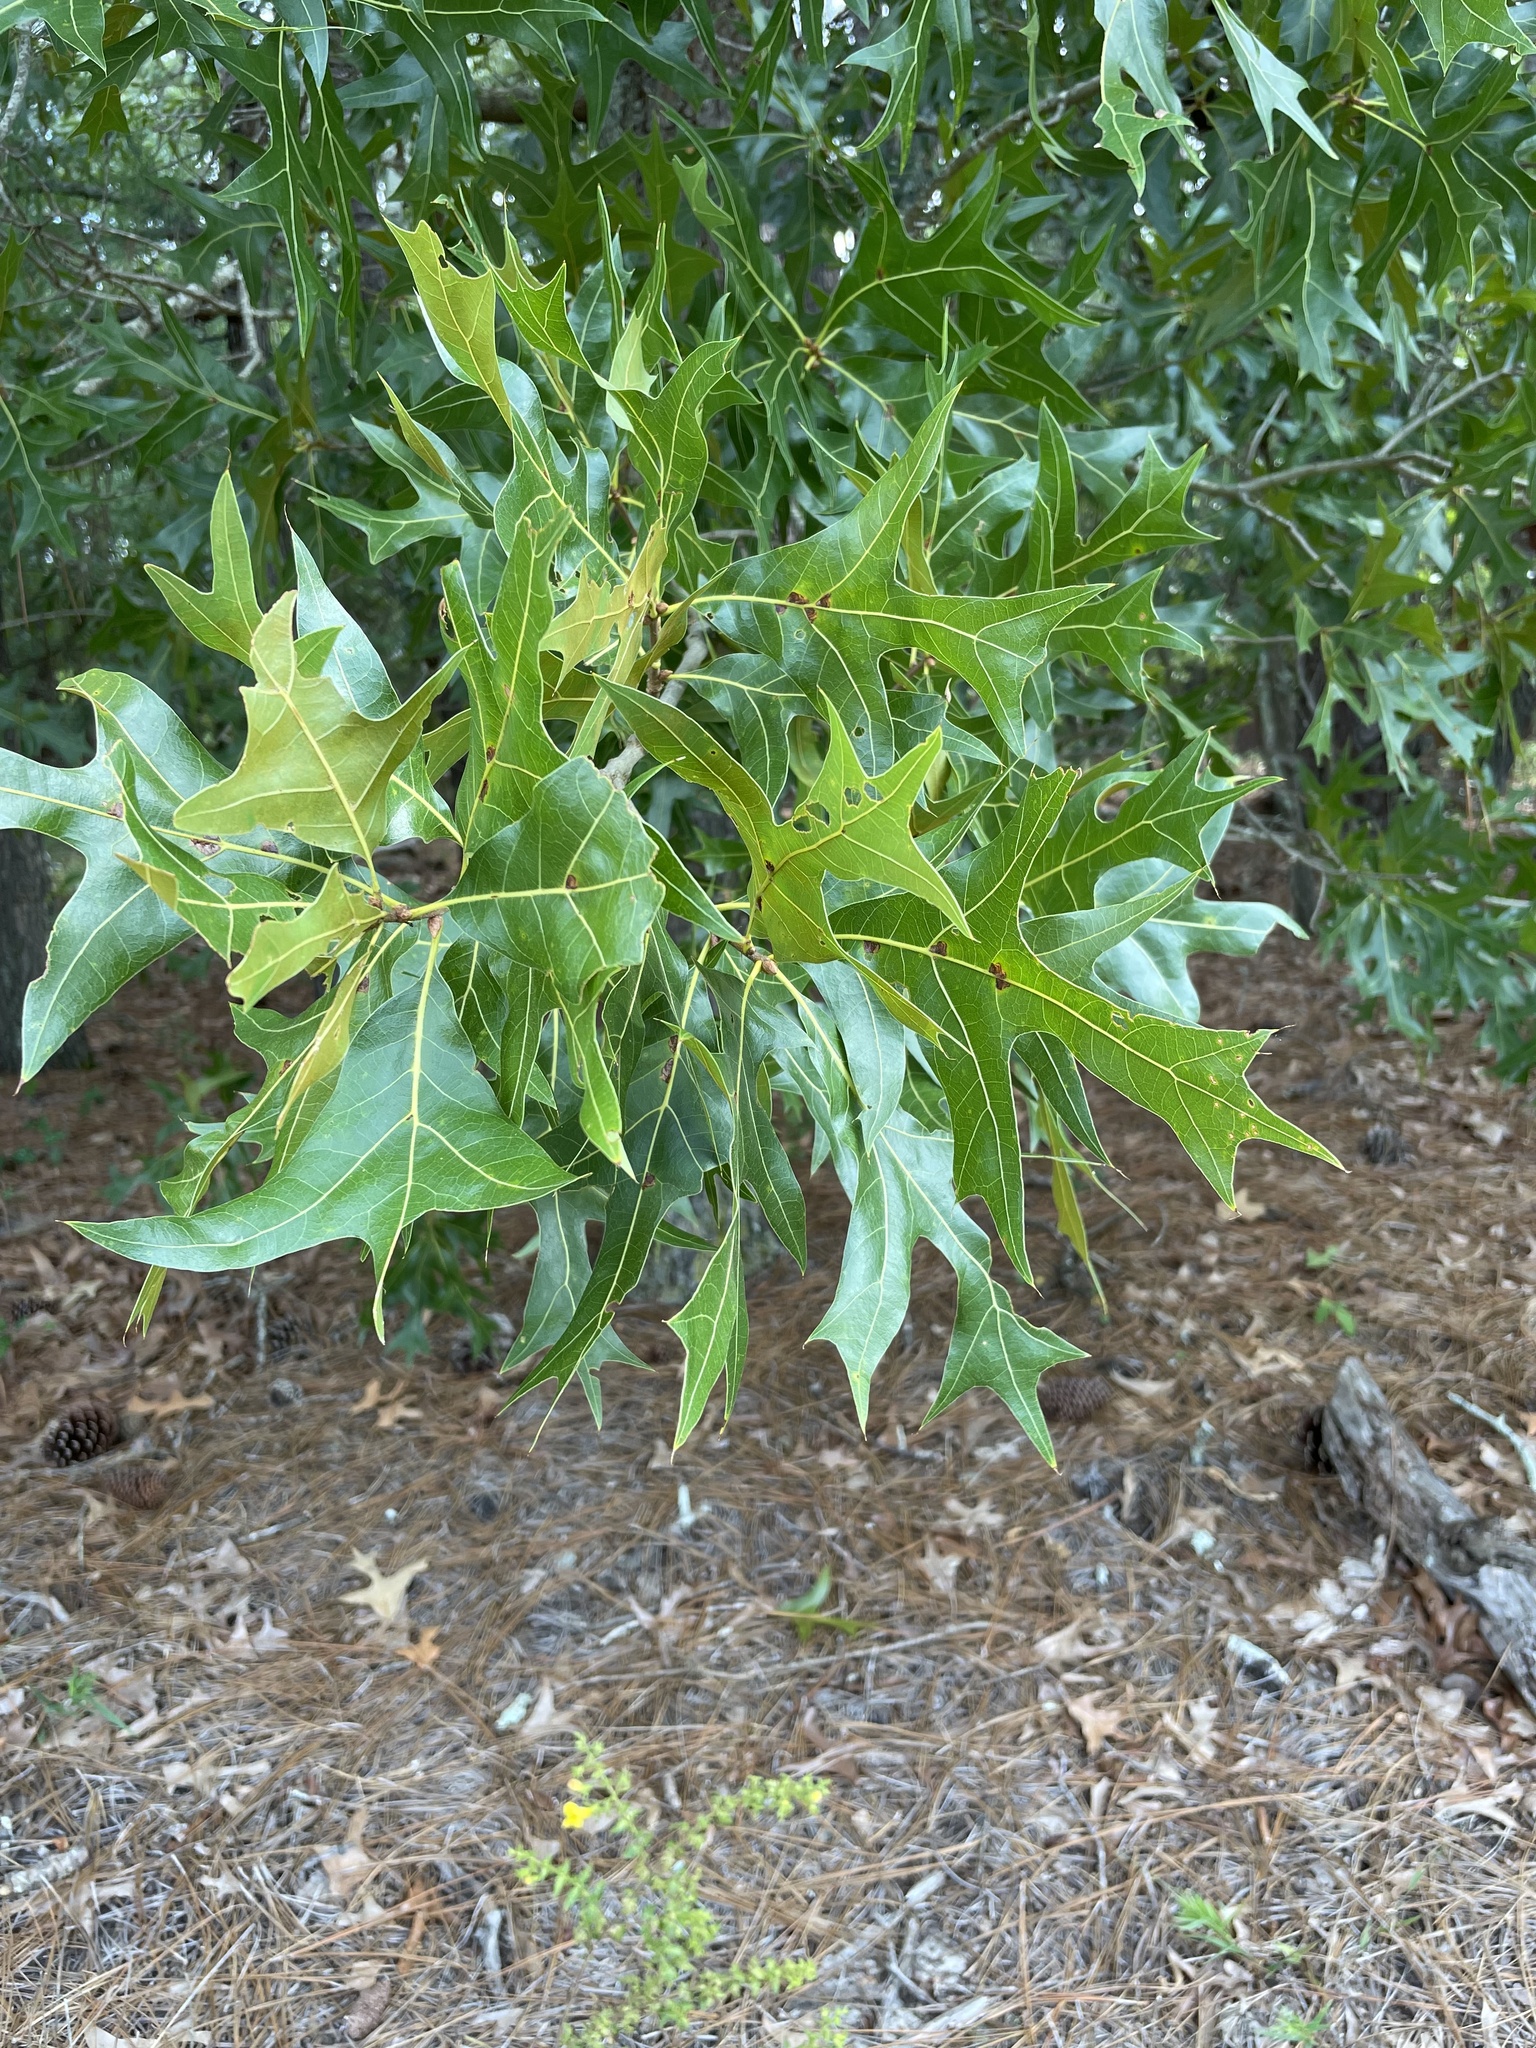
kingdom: Plantae
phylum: Tracheophyta
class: Magnoliopsida
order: Fagales
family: Fagaceae
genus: Quercus
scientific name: Quercus laevis
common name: Turkey oak
